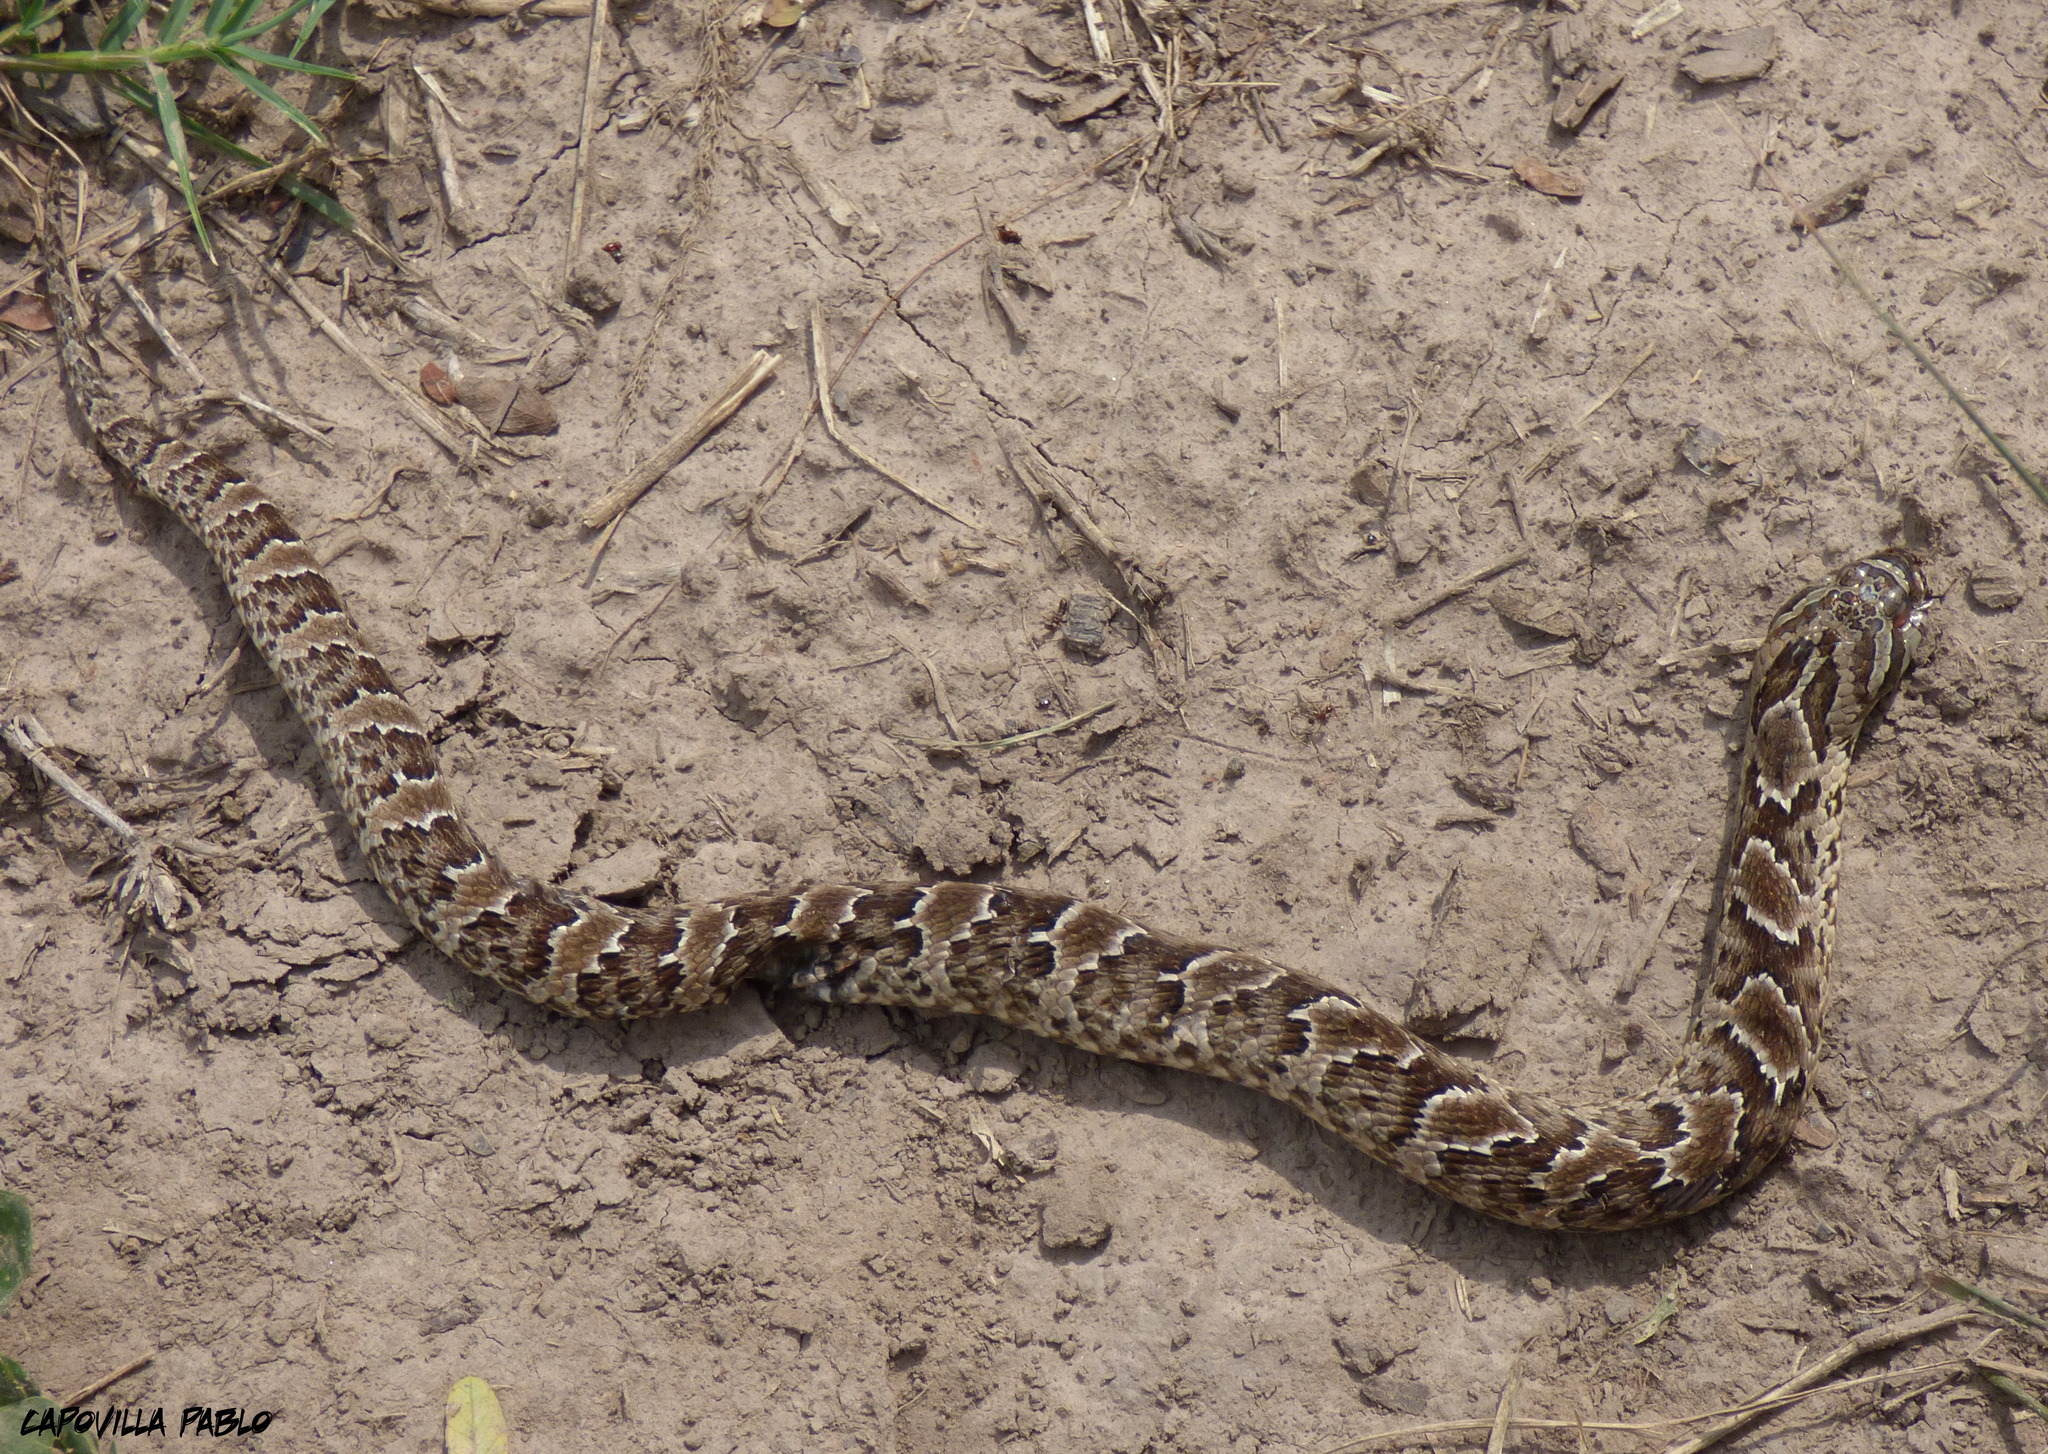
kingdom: Animalia
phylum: Chordata
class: Squamata
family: Colubridae
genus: Xenodon
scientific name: Xenodon merremii
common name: Wagler's snake
